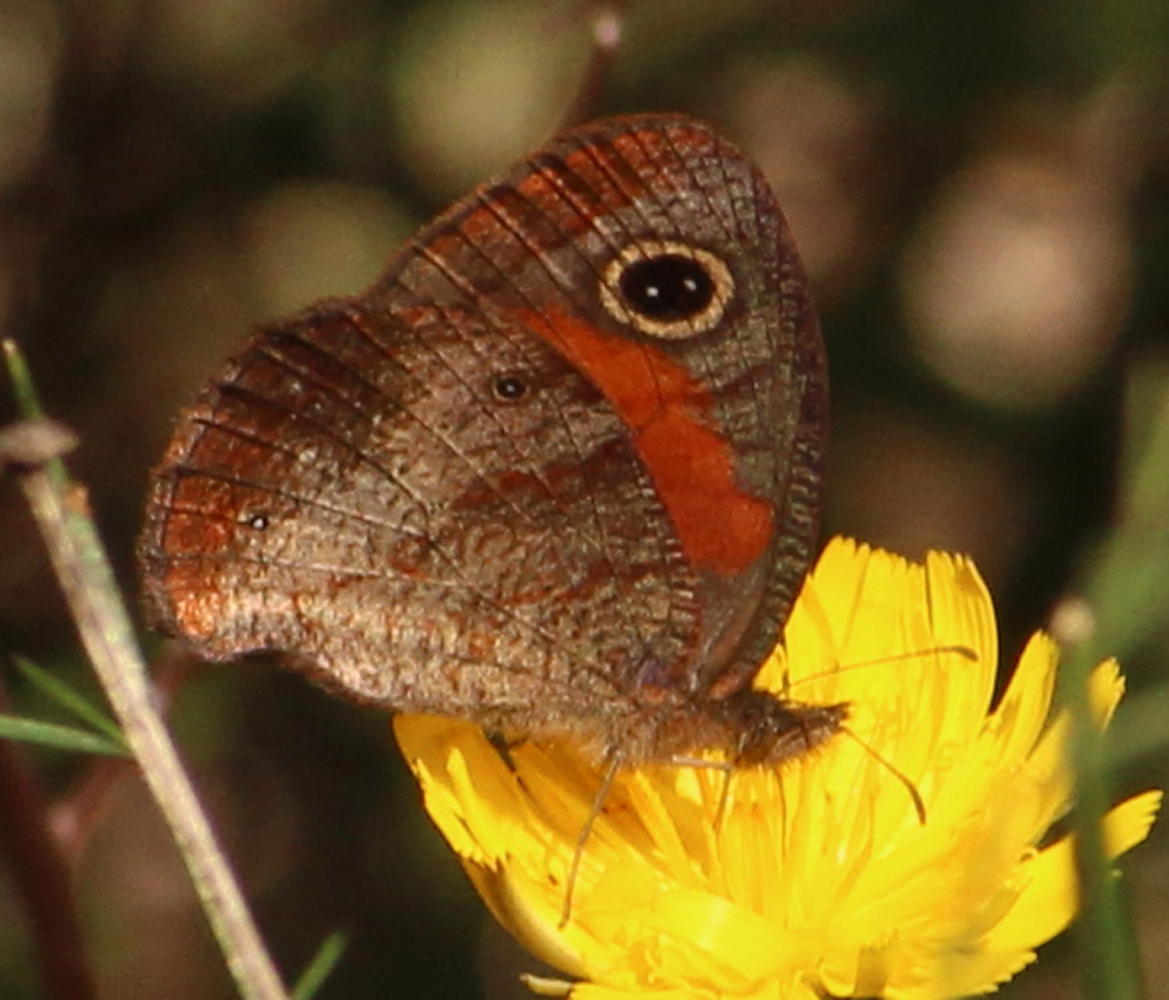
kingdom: Animalia
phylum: Arthropoda
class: Insecta
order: Lepidoptera
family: Nymphalidae
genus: Cassionympha
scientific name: Cassionympha cassius
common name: Rainforest brown
